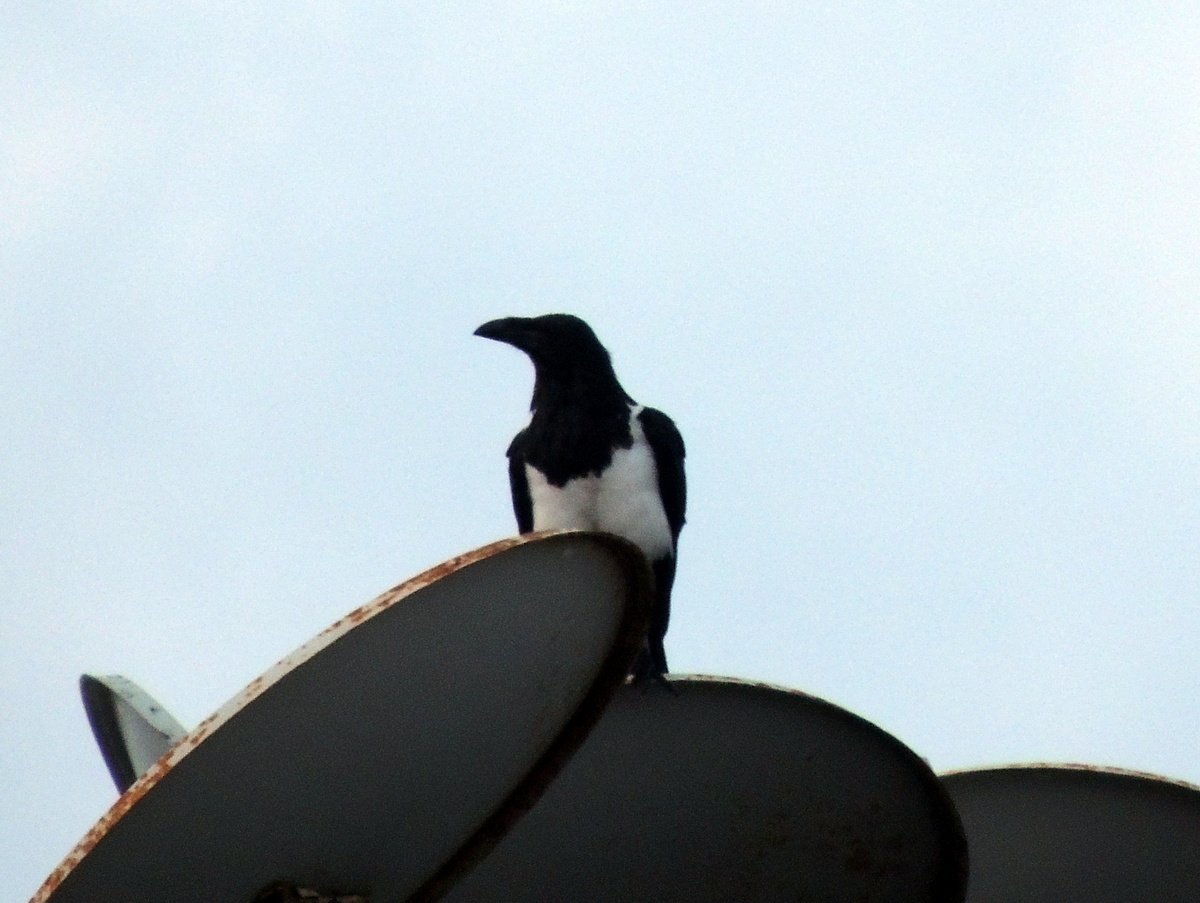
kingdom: Animalia
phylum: Chordata
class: Aves
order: Passeriformes
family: Corvidae
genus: Corvus
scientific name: Corvus albus
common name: Pied crow
